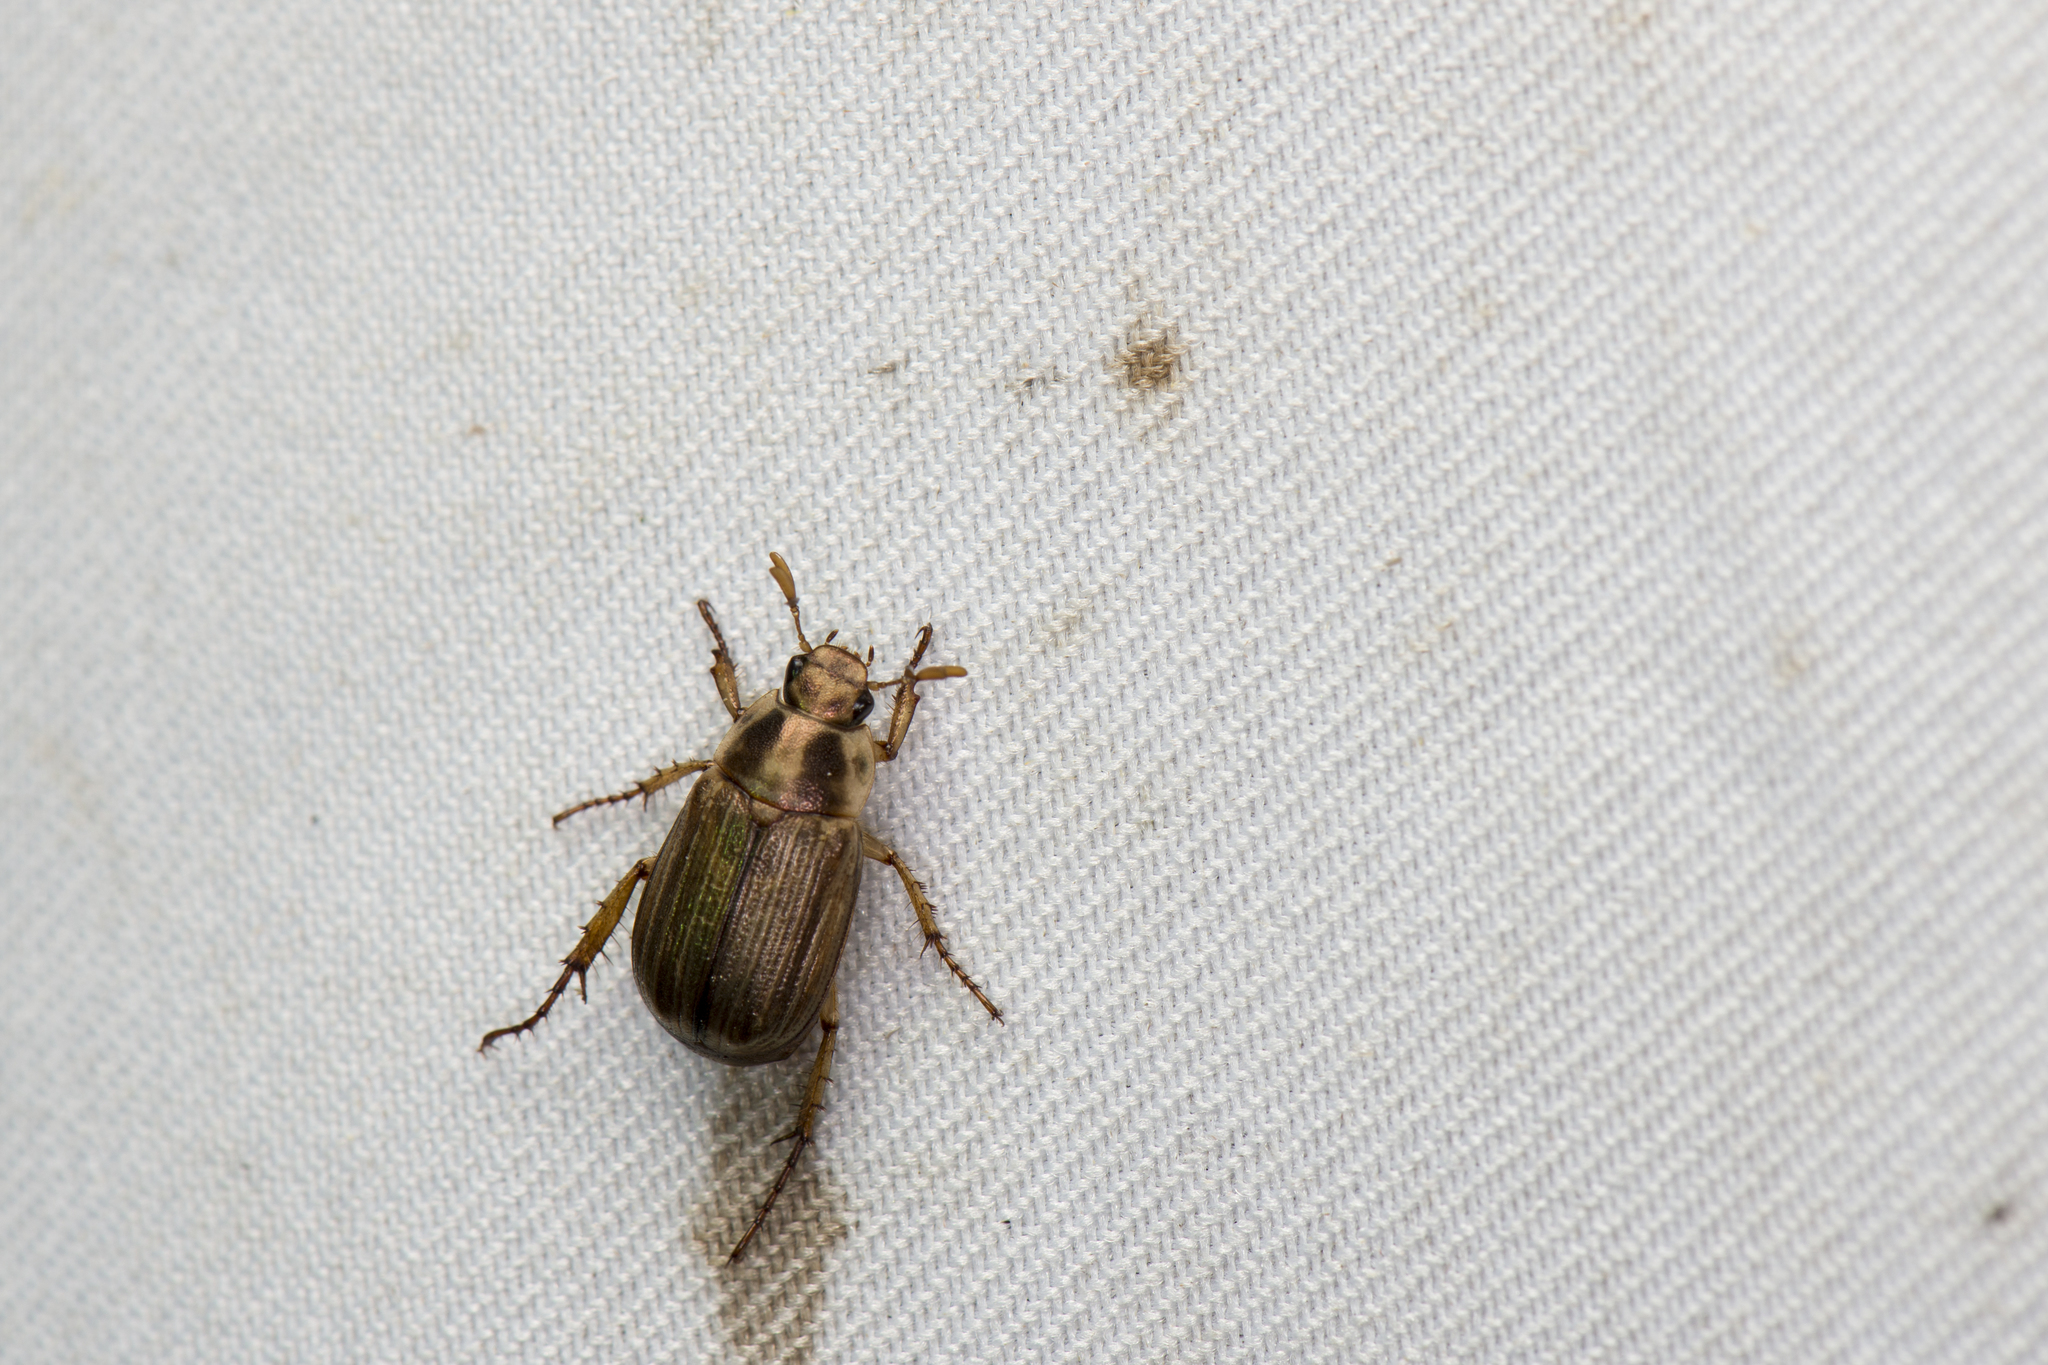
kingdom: Animalia
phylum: Arthropoda
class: Insecta
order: Coleoptera
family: Scarabaeidae
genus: Anomala
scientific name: Anomala inconcinna
